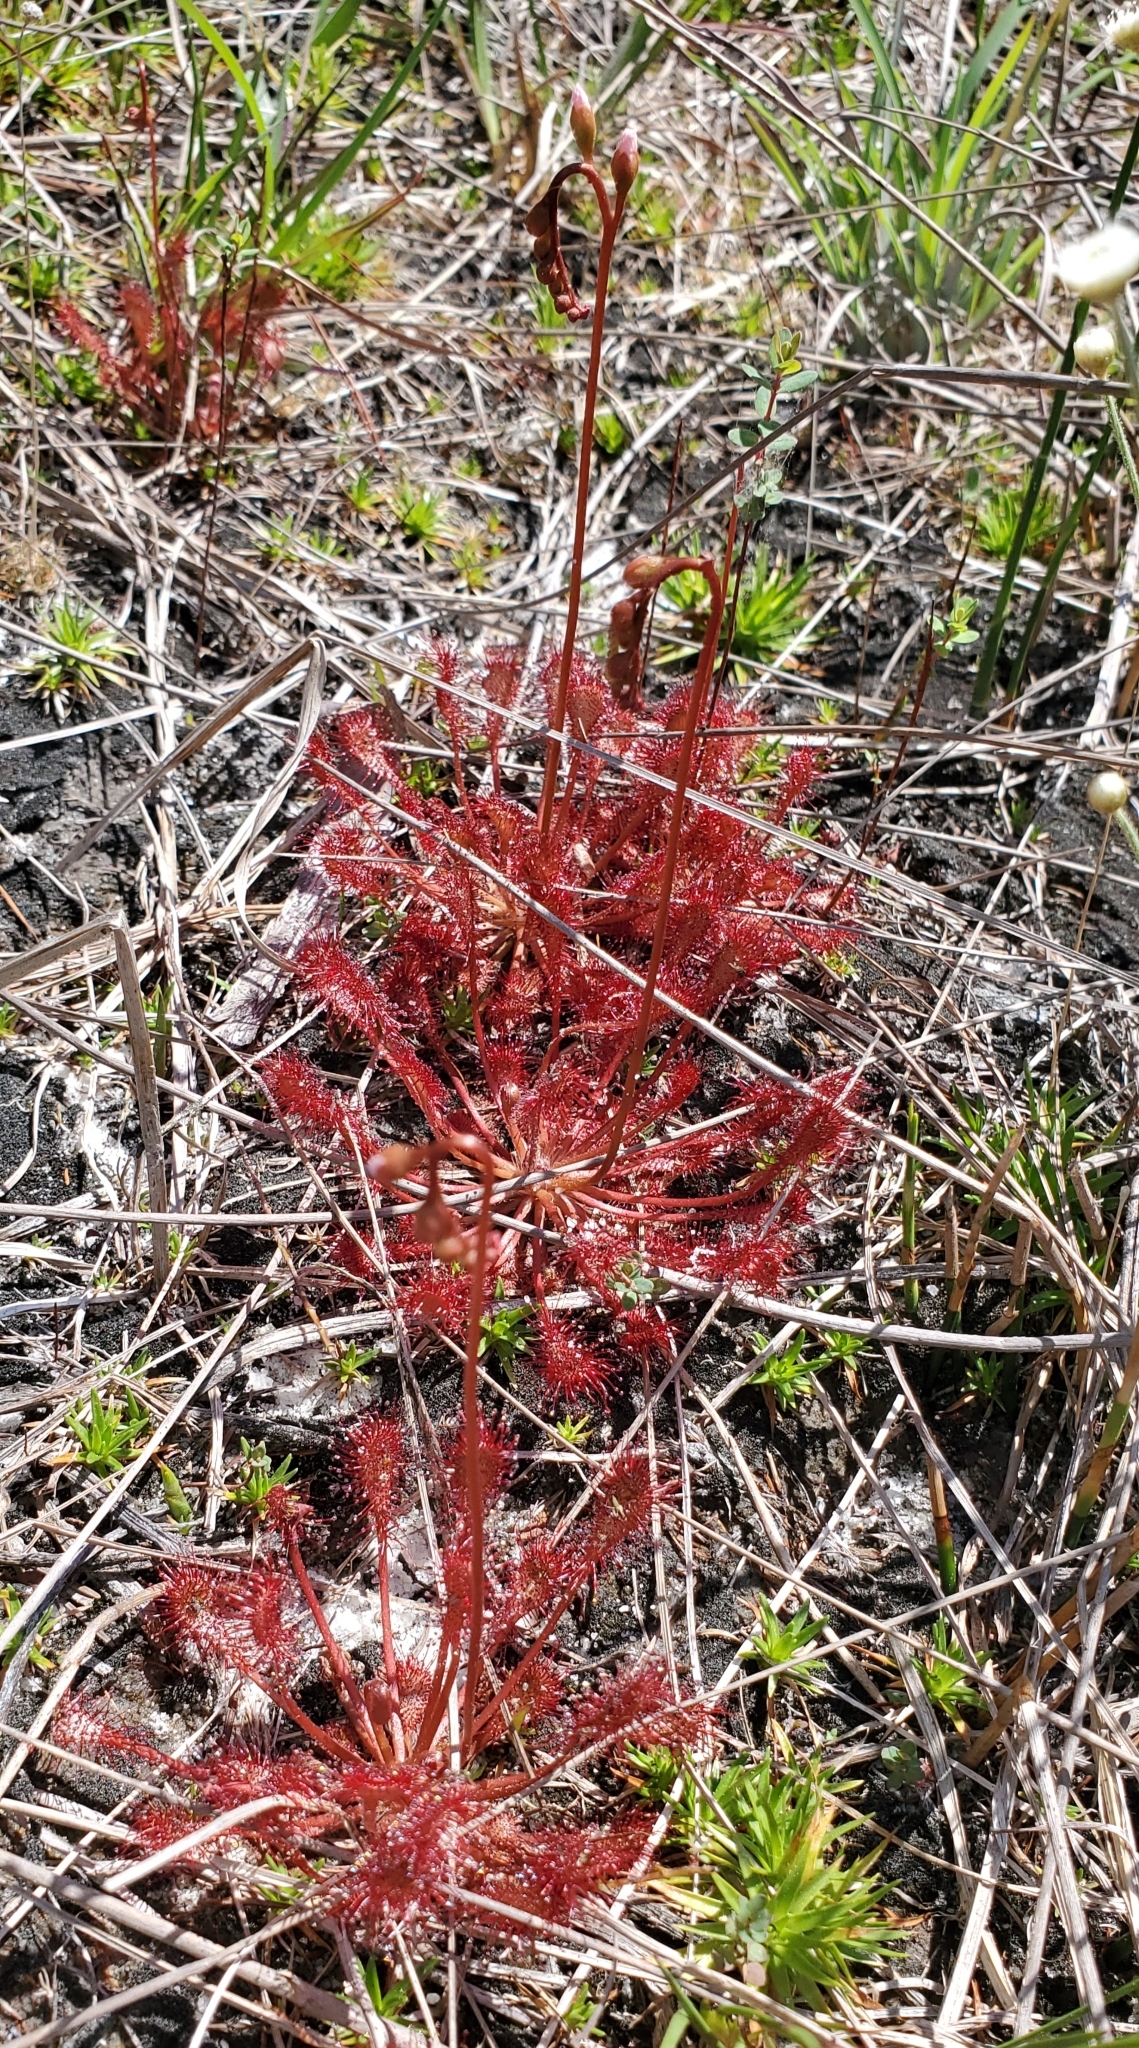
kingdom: Plantae
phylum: Tracheophyta
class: Magnoliopsida
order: Caryophyllales
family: Droseraceae
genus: Drosera
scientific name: Drosera capillaris
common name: Pink sundew
